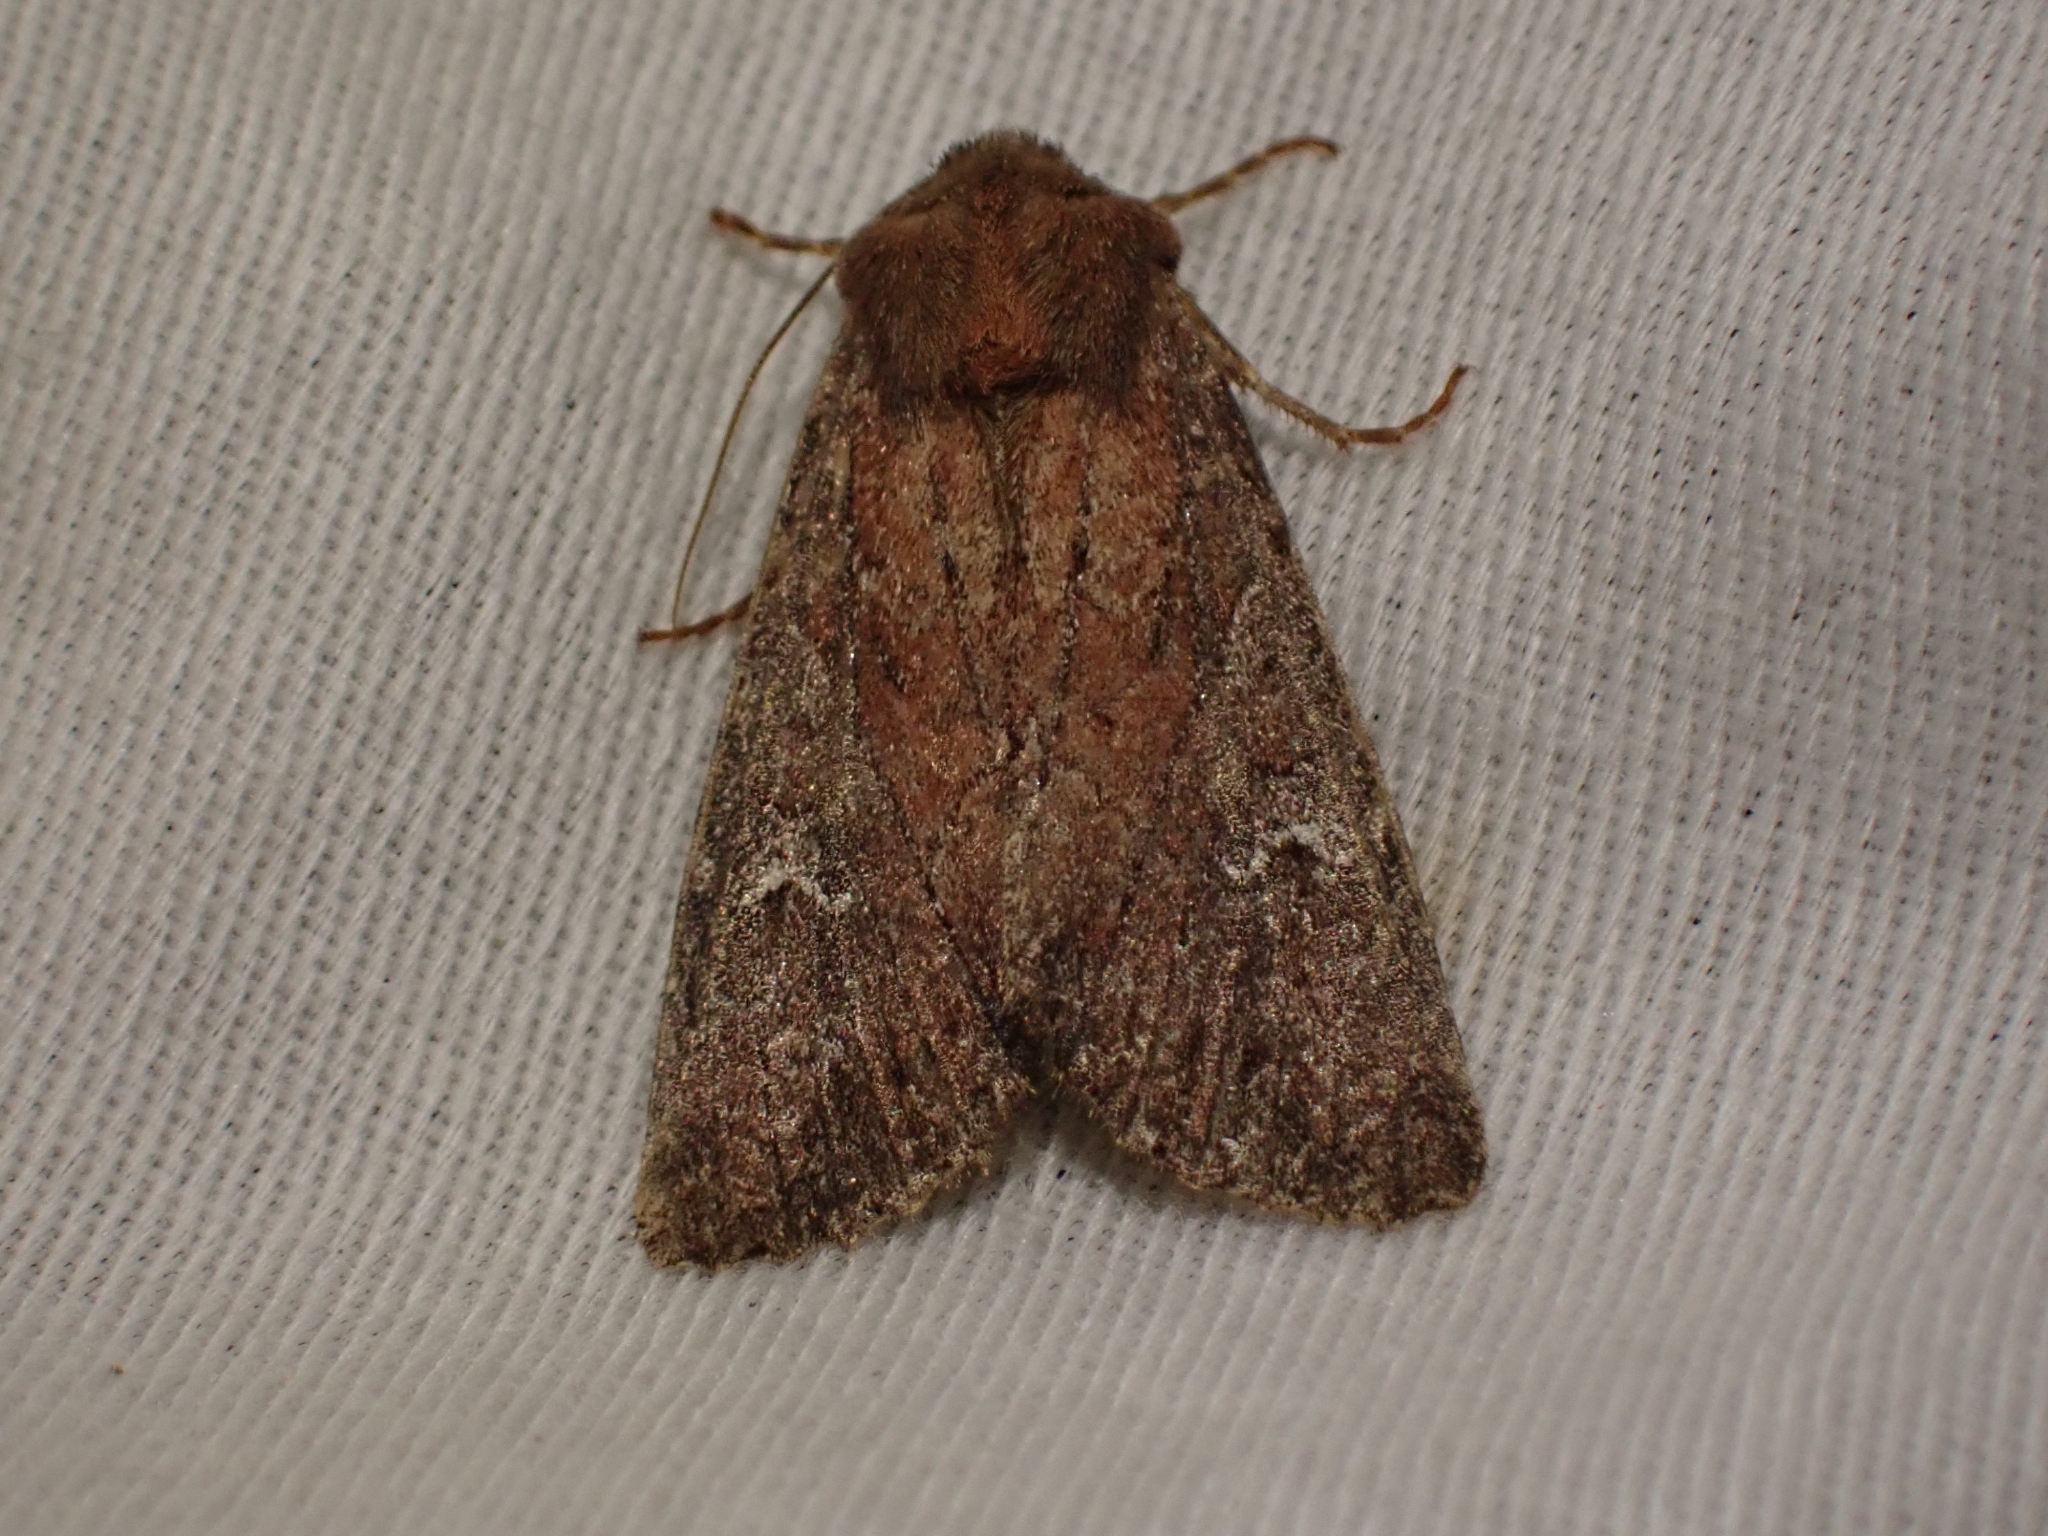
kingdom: Animalia
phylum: Arthropoda
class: Insecta
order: Lepidoptera
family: Noctuidae
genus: Apamea
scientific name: Apamea scoparia
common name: Faint-spotted quaker
